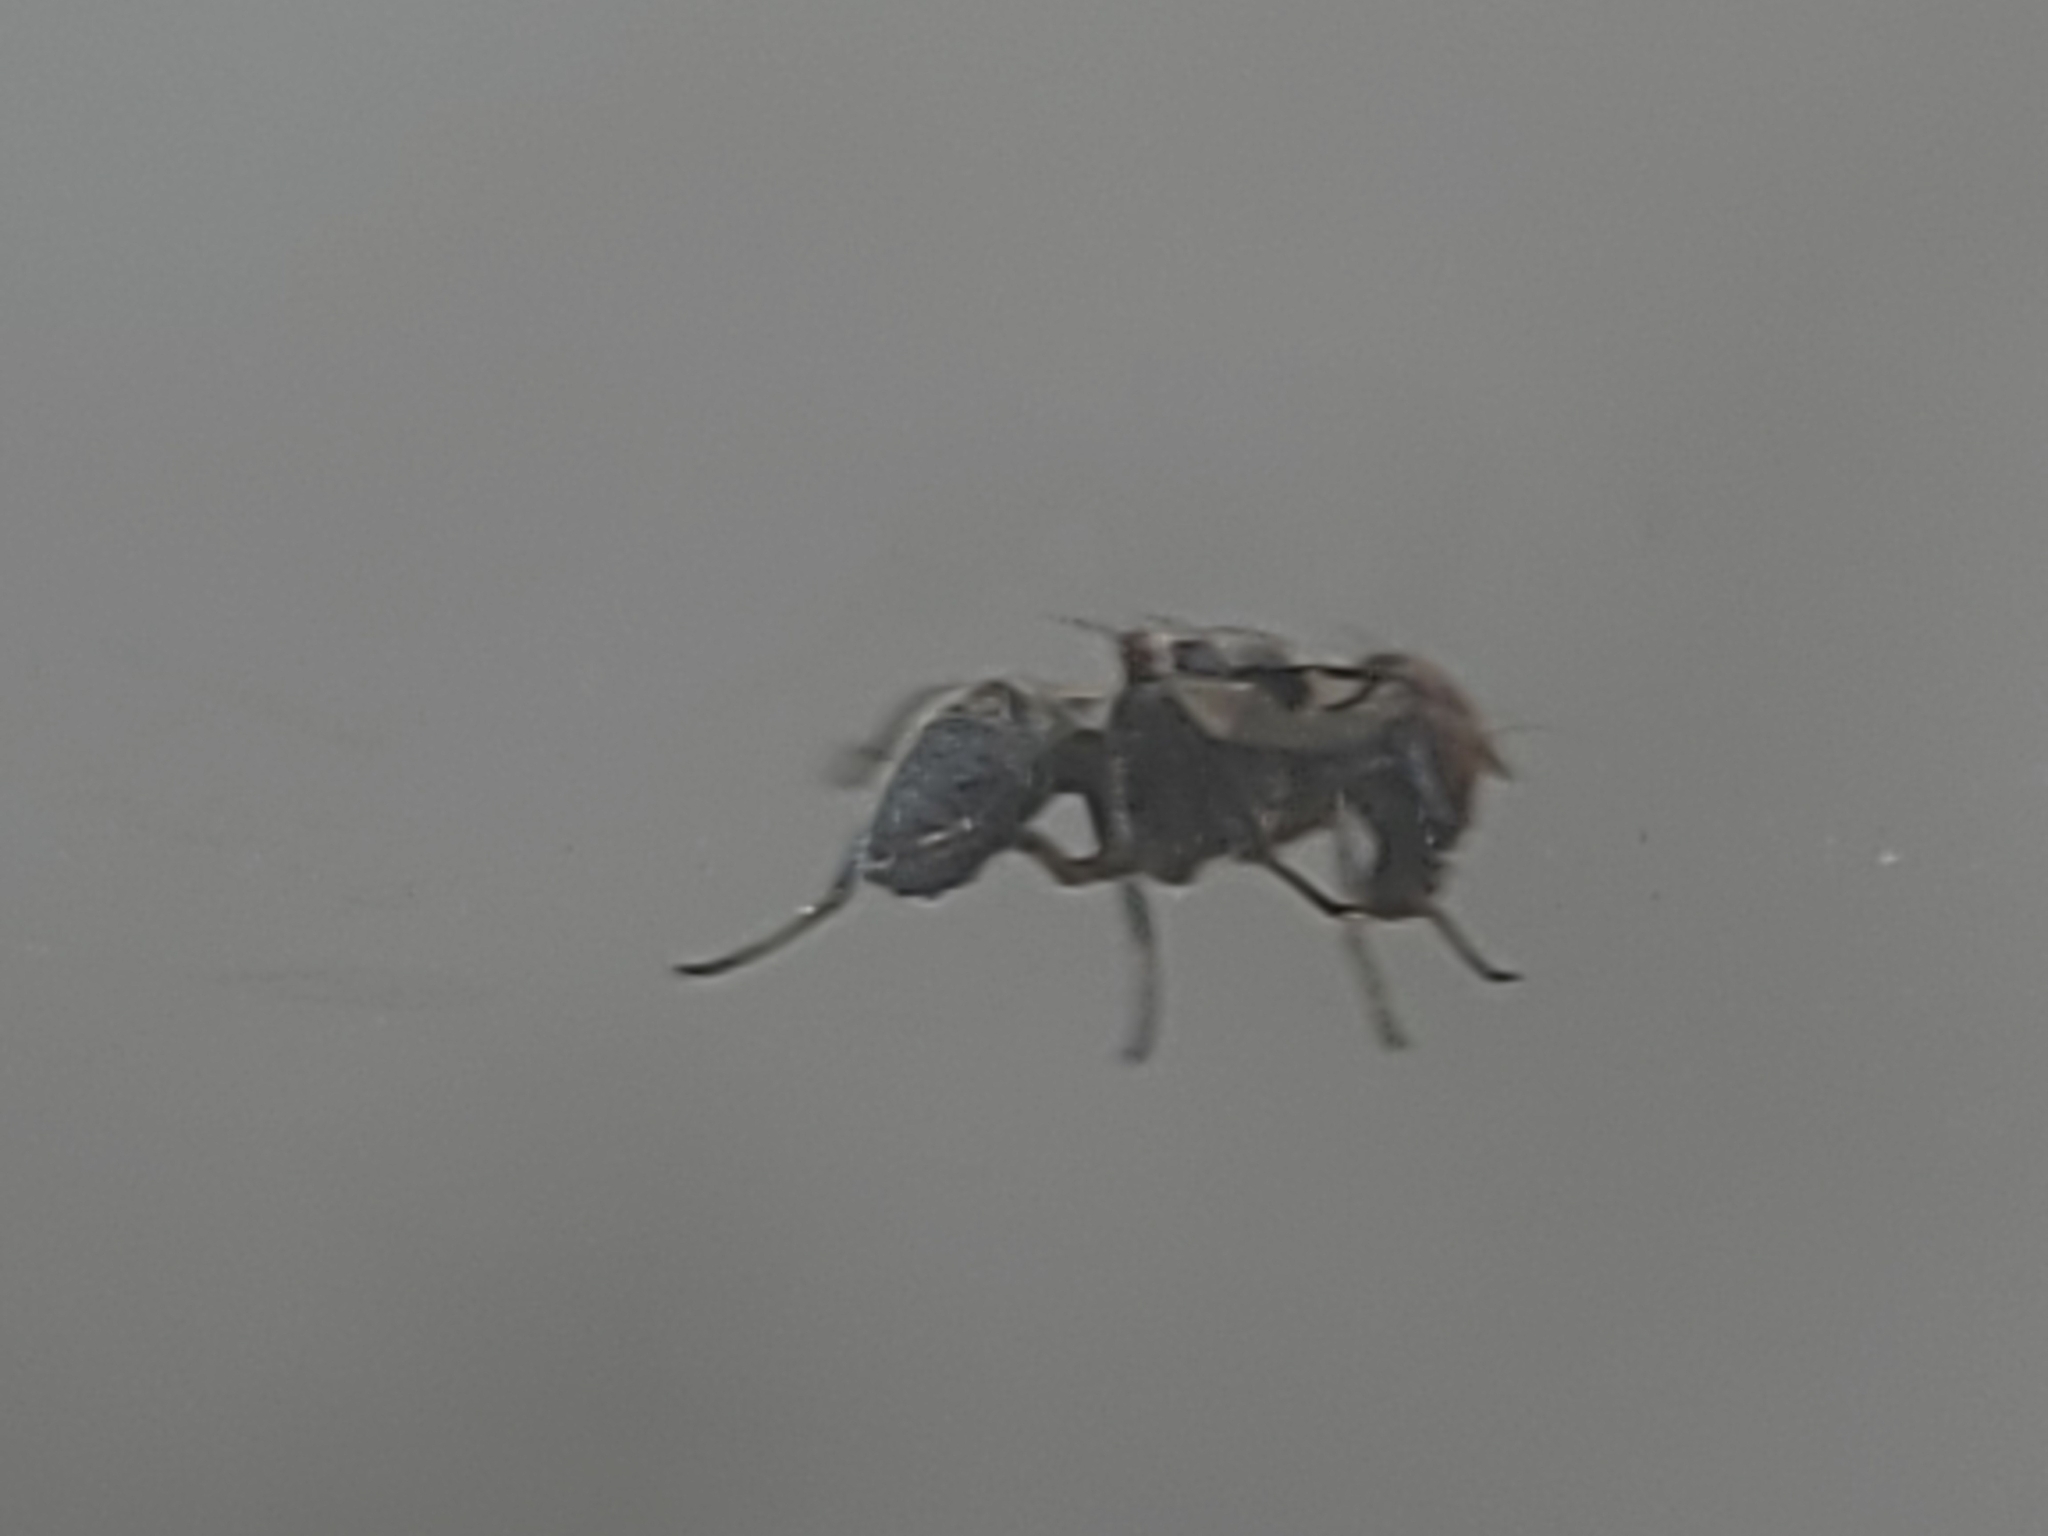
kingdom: Animalia
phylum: Arthropoda
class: Insecta
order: Diptera
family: Platystomatidae
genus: Pogonortalis
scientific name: Pogonortalis doclea
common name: Boatman fly
